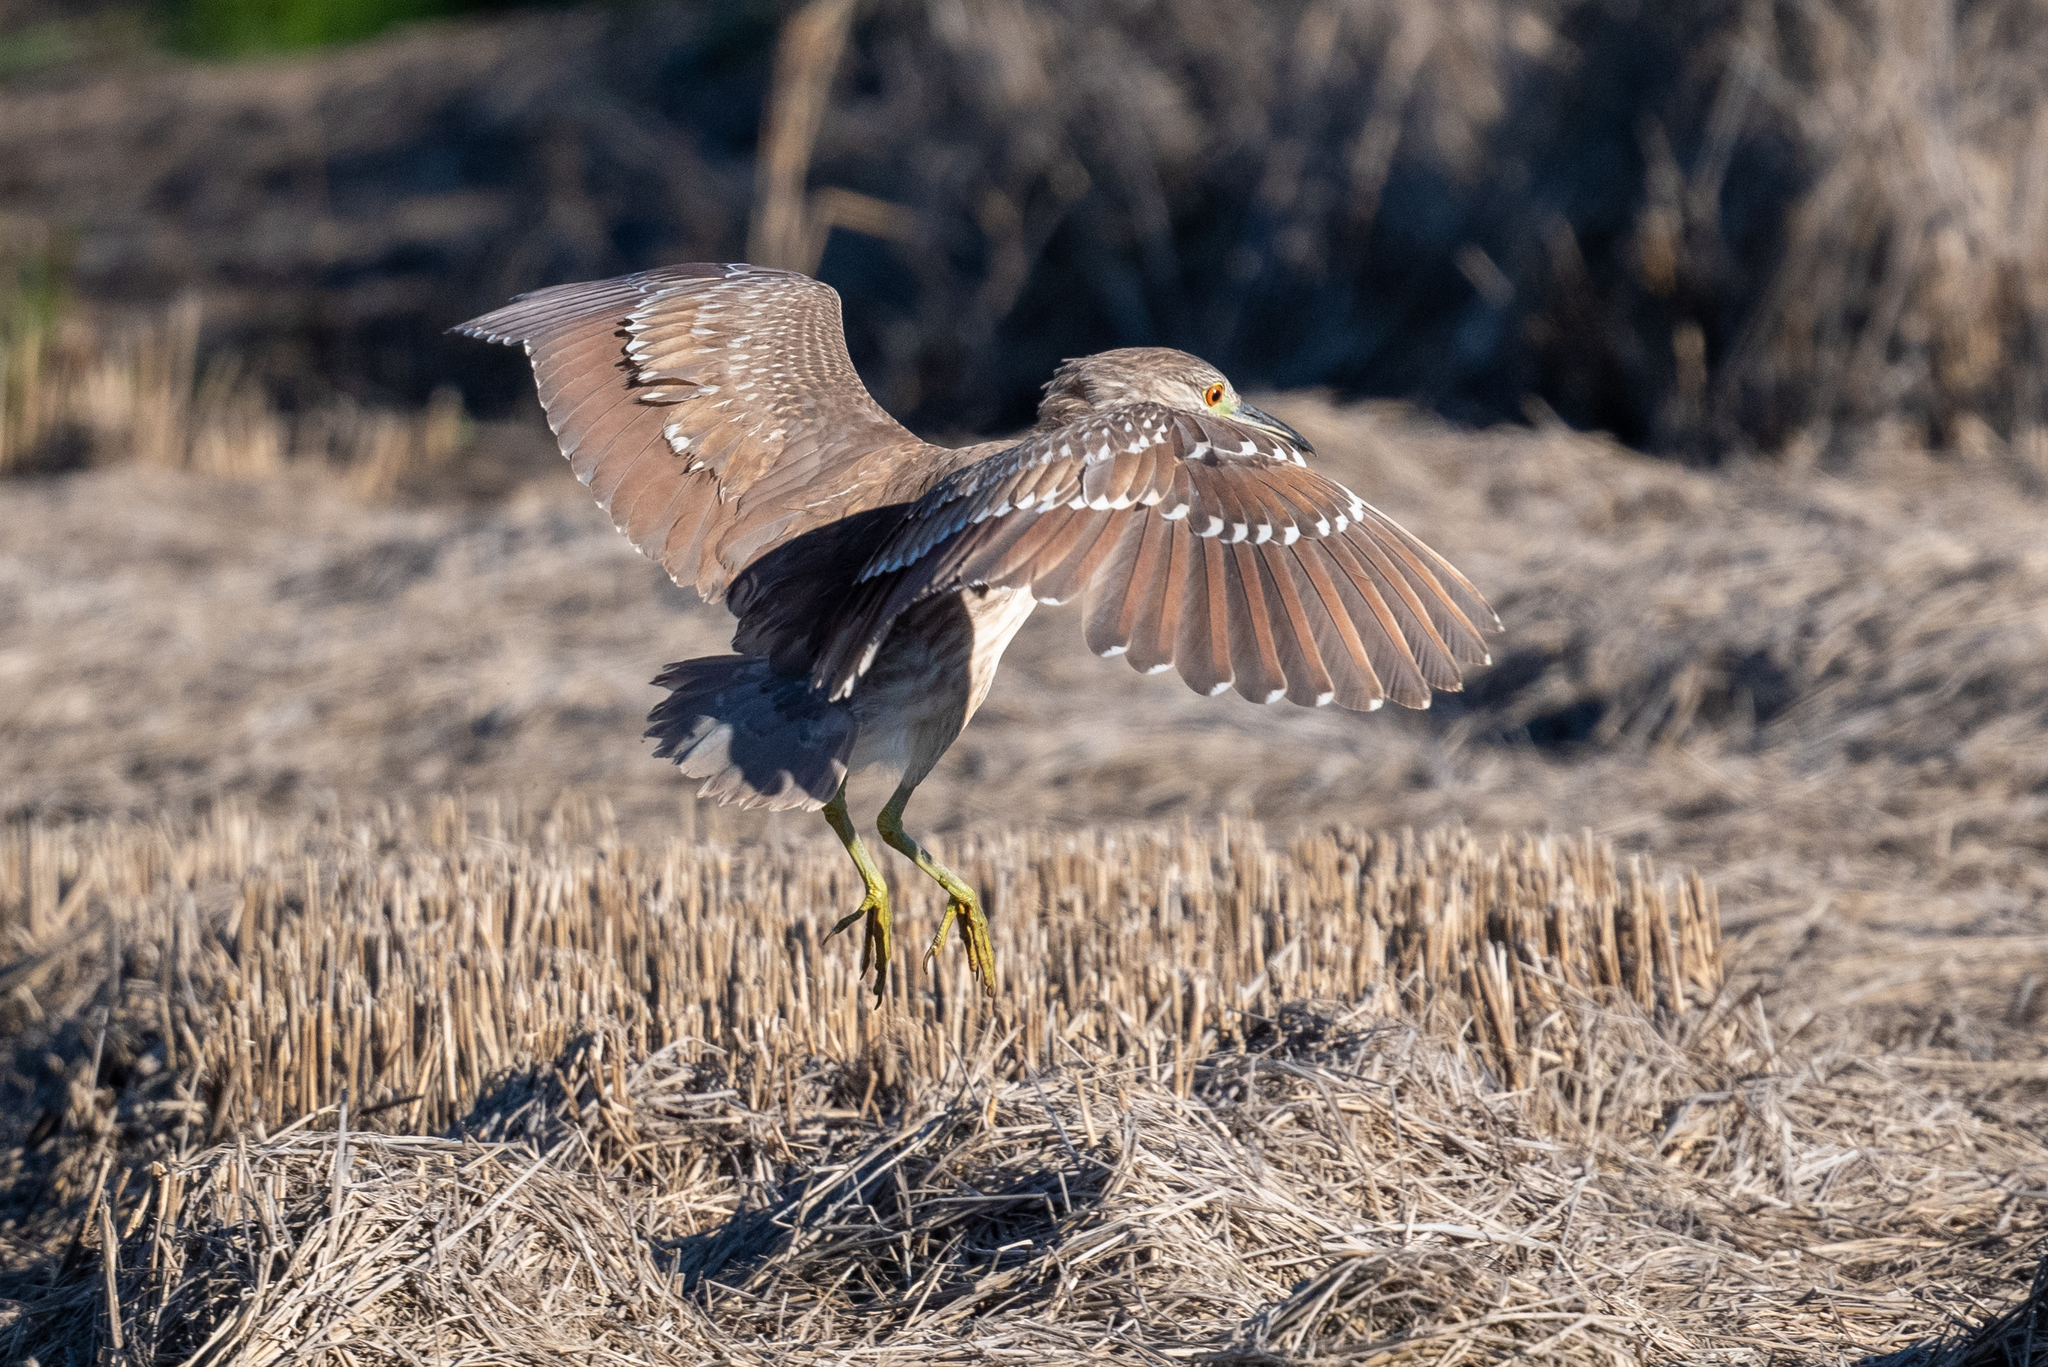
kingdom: Animalia
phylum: Chordata
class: Aves
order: Pelecaniformes
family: Ardeidae
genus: Nycticorax
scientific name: Nycticorax nycticorax
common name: Black-crowned night heron
